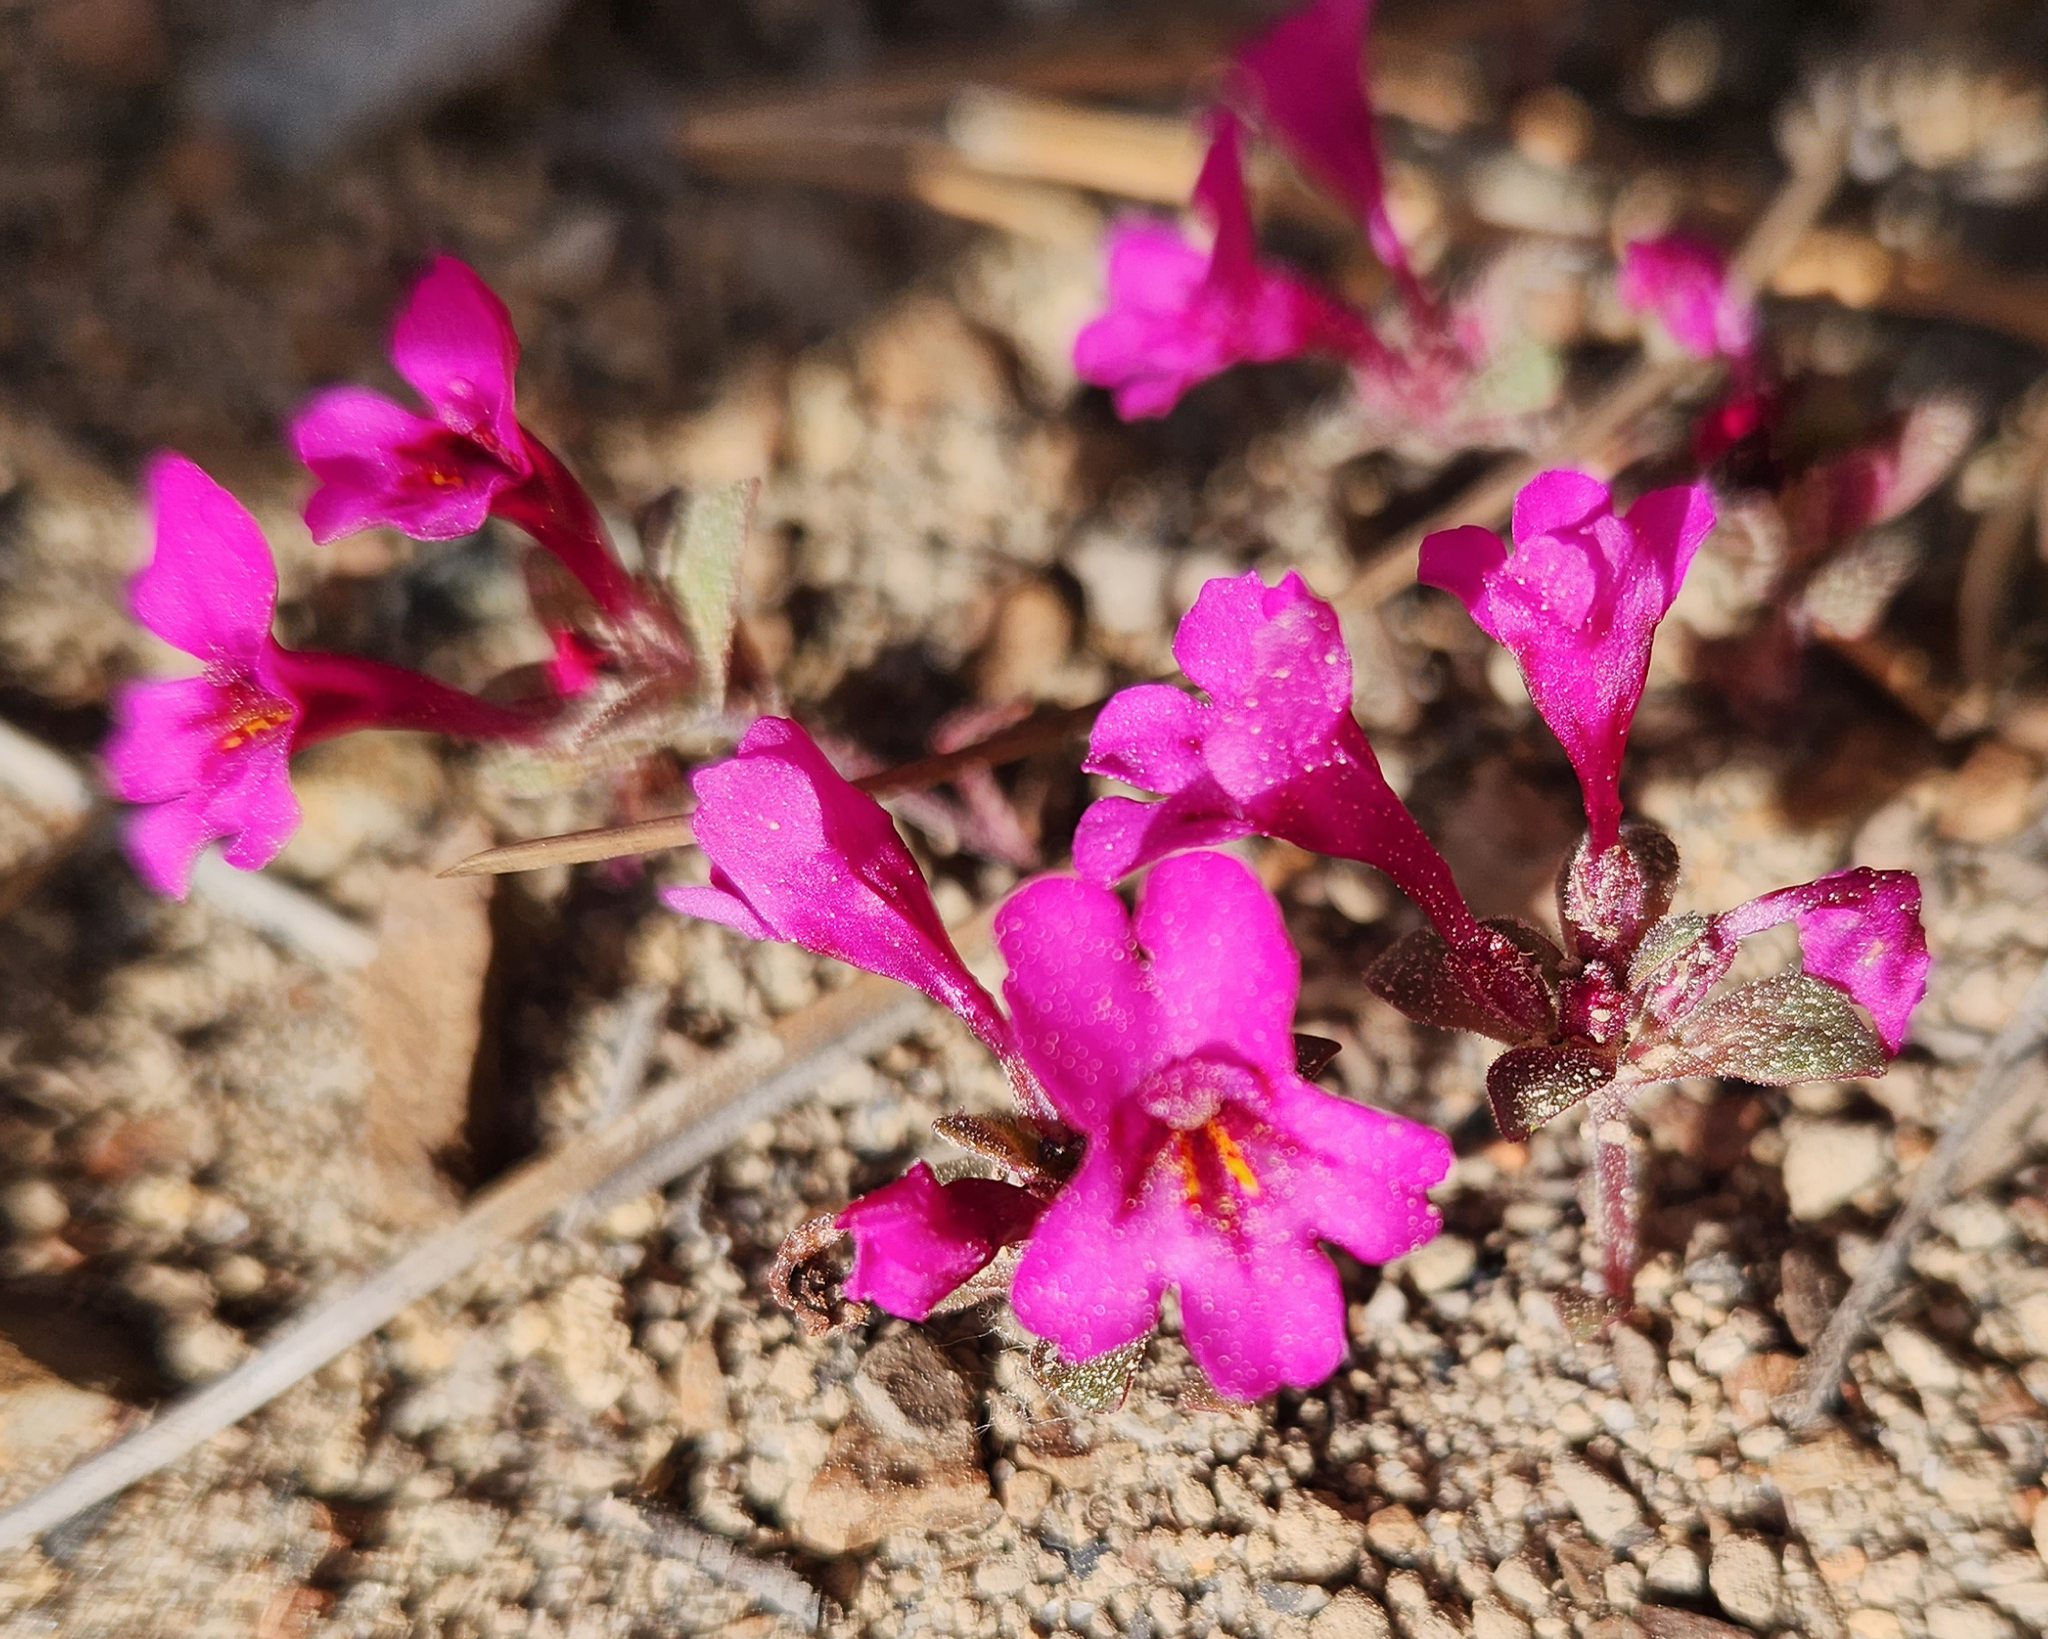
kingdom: Plantae
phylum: Tracheophyta
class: Magnoliopsida
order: Lamiales
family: Phrymaceae
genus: Diplacus
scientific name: Diplacus nanus
